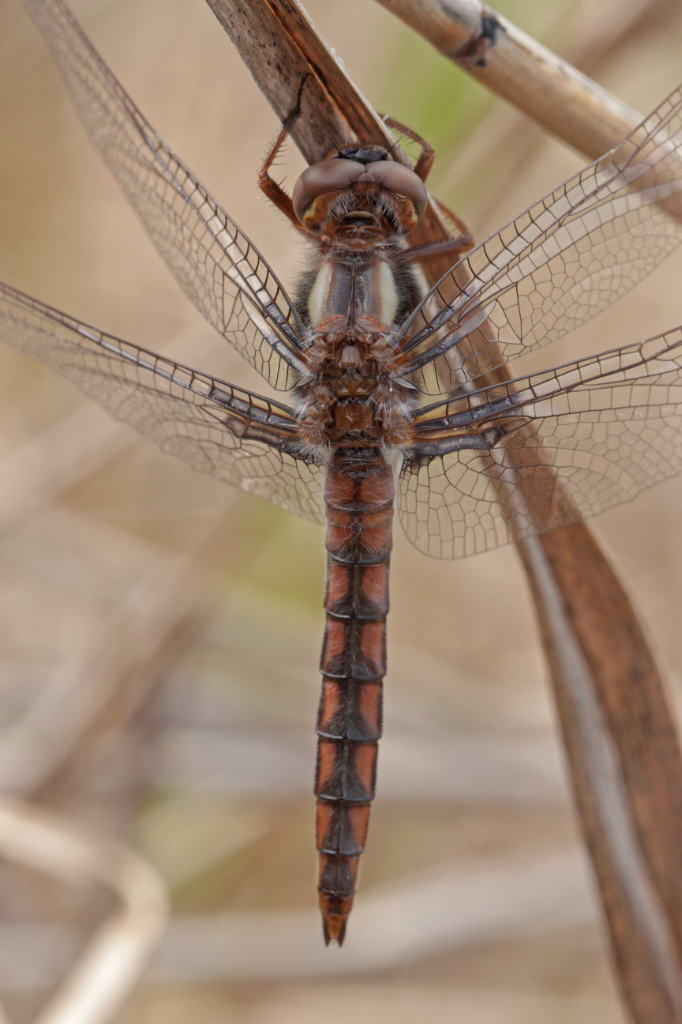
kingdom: Animalia
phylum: Arthropoda
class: Insecta
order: Odonata
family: Libellulidae
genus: Ladona
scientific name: Ladona deplanata
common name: Blue corporal
